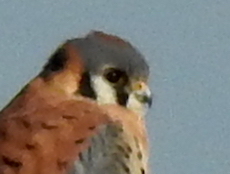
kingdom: Animalia
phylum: Chordata
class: Aves
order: Falconiformes
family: Falconidae
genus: Falco
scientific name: Falco sparverius
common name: American kestrel
